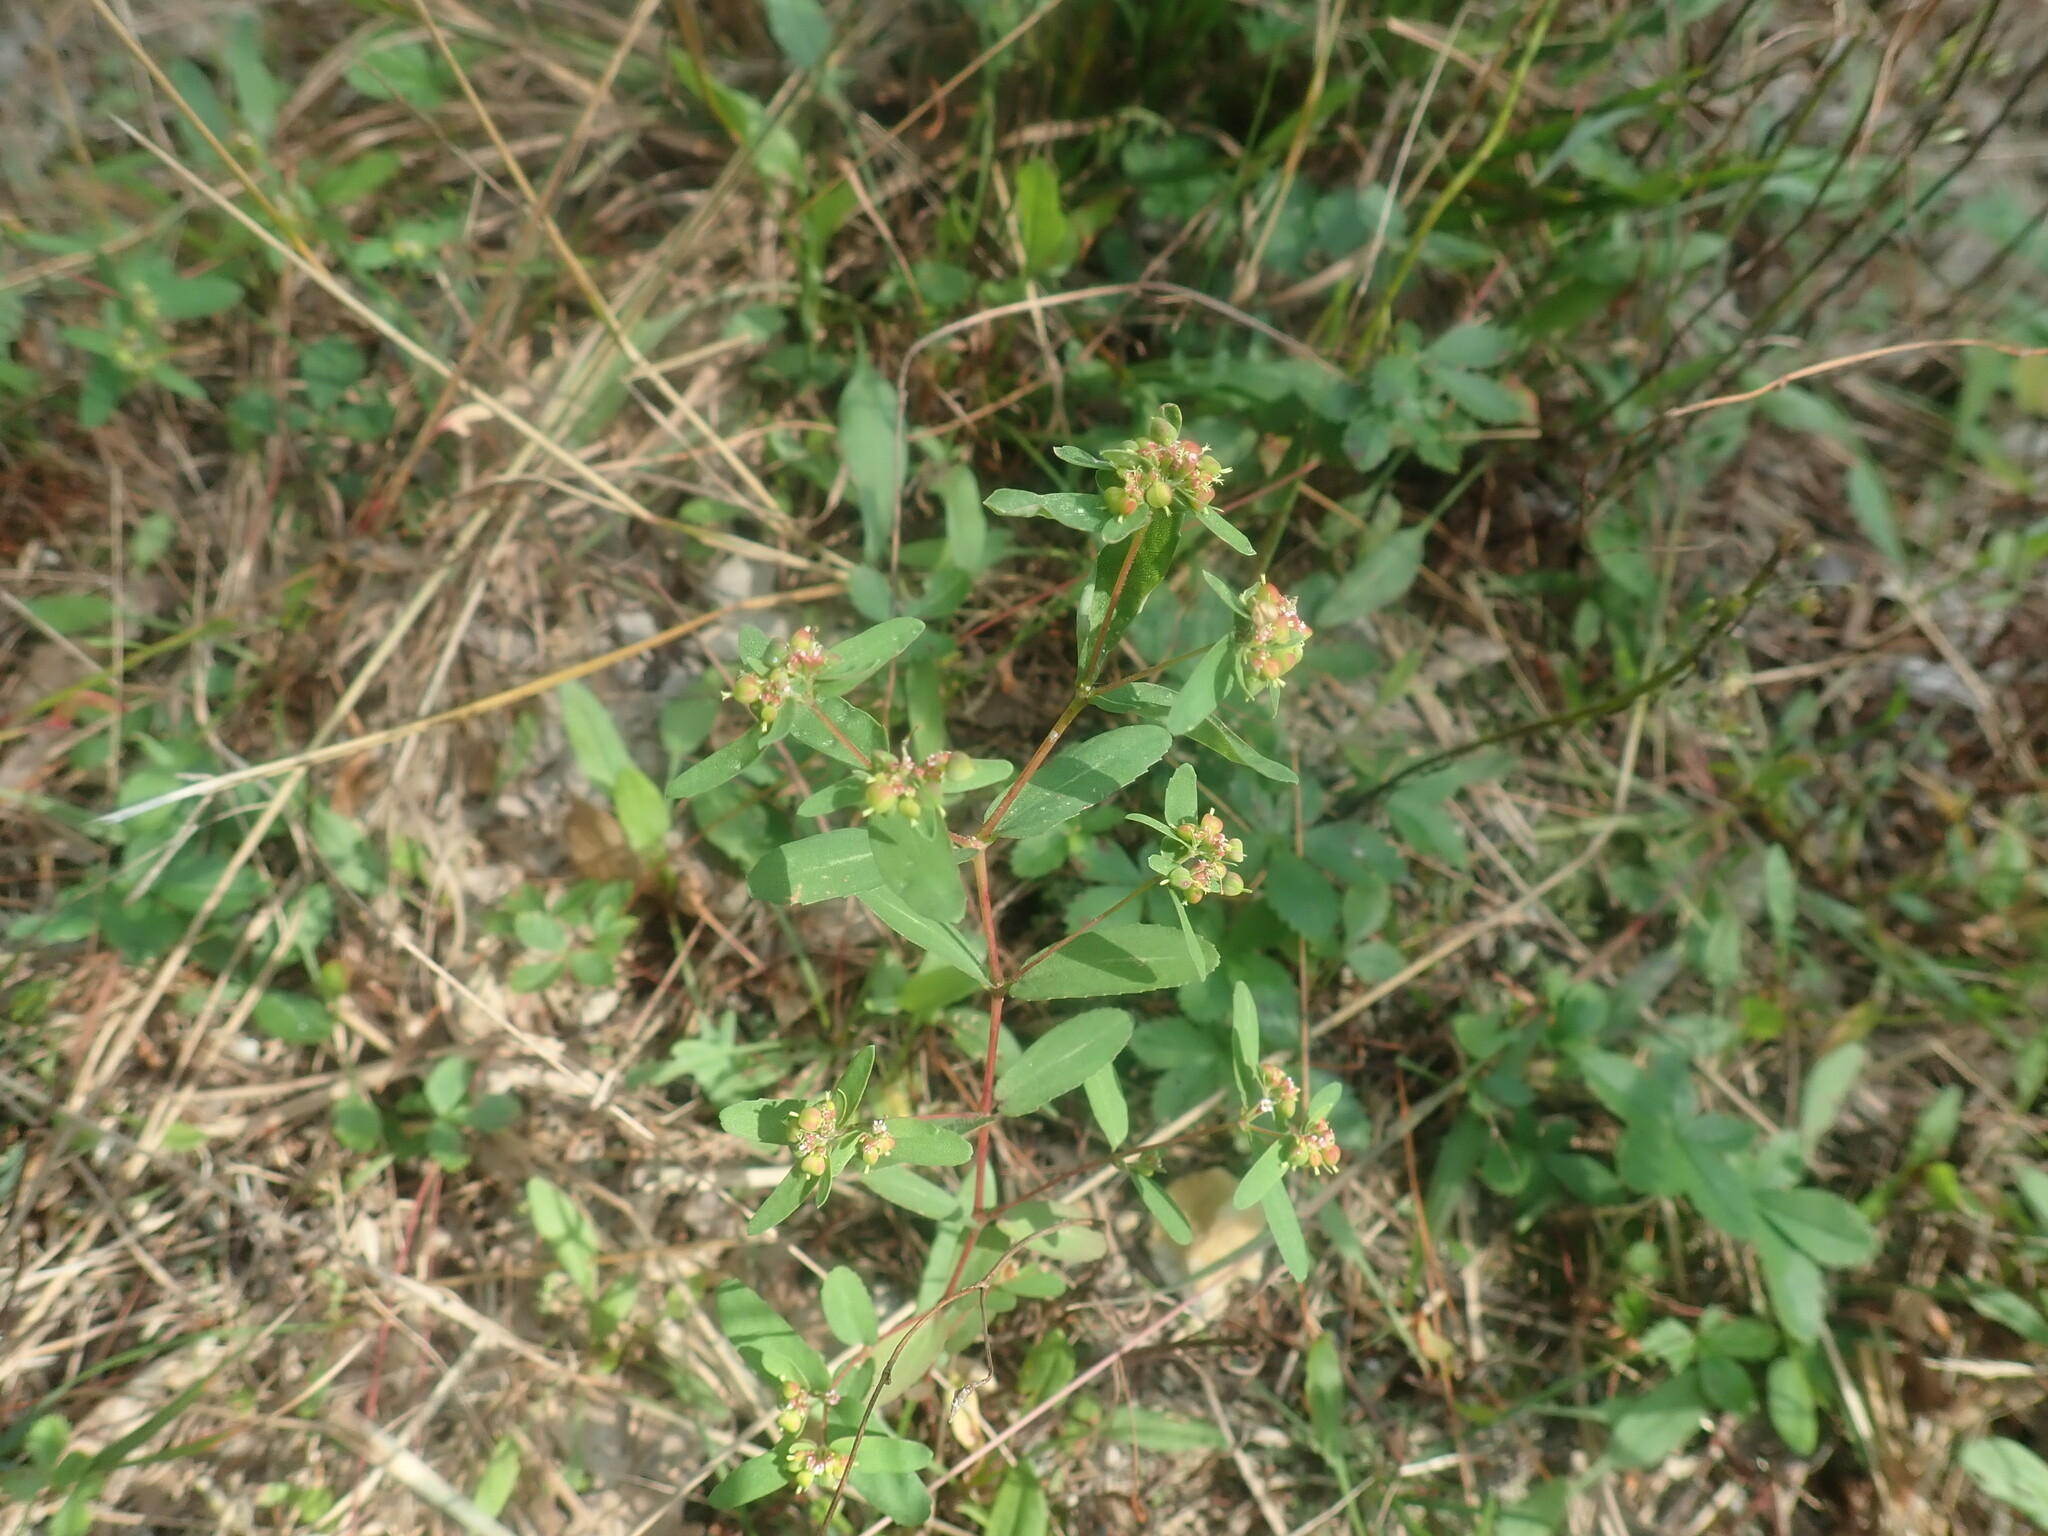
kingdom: Plantae
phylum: Tracheophyta
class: Magnoliopsida
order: Malpighiales
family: Euphorbiaceae
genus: Euphorbia
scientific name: Euphorbia nutans
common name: Eyebane
